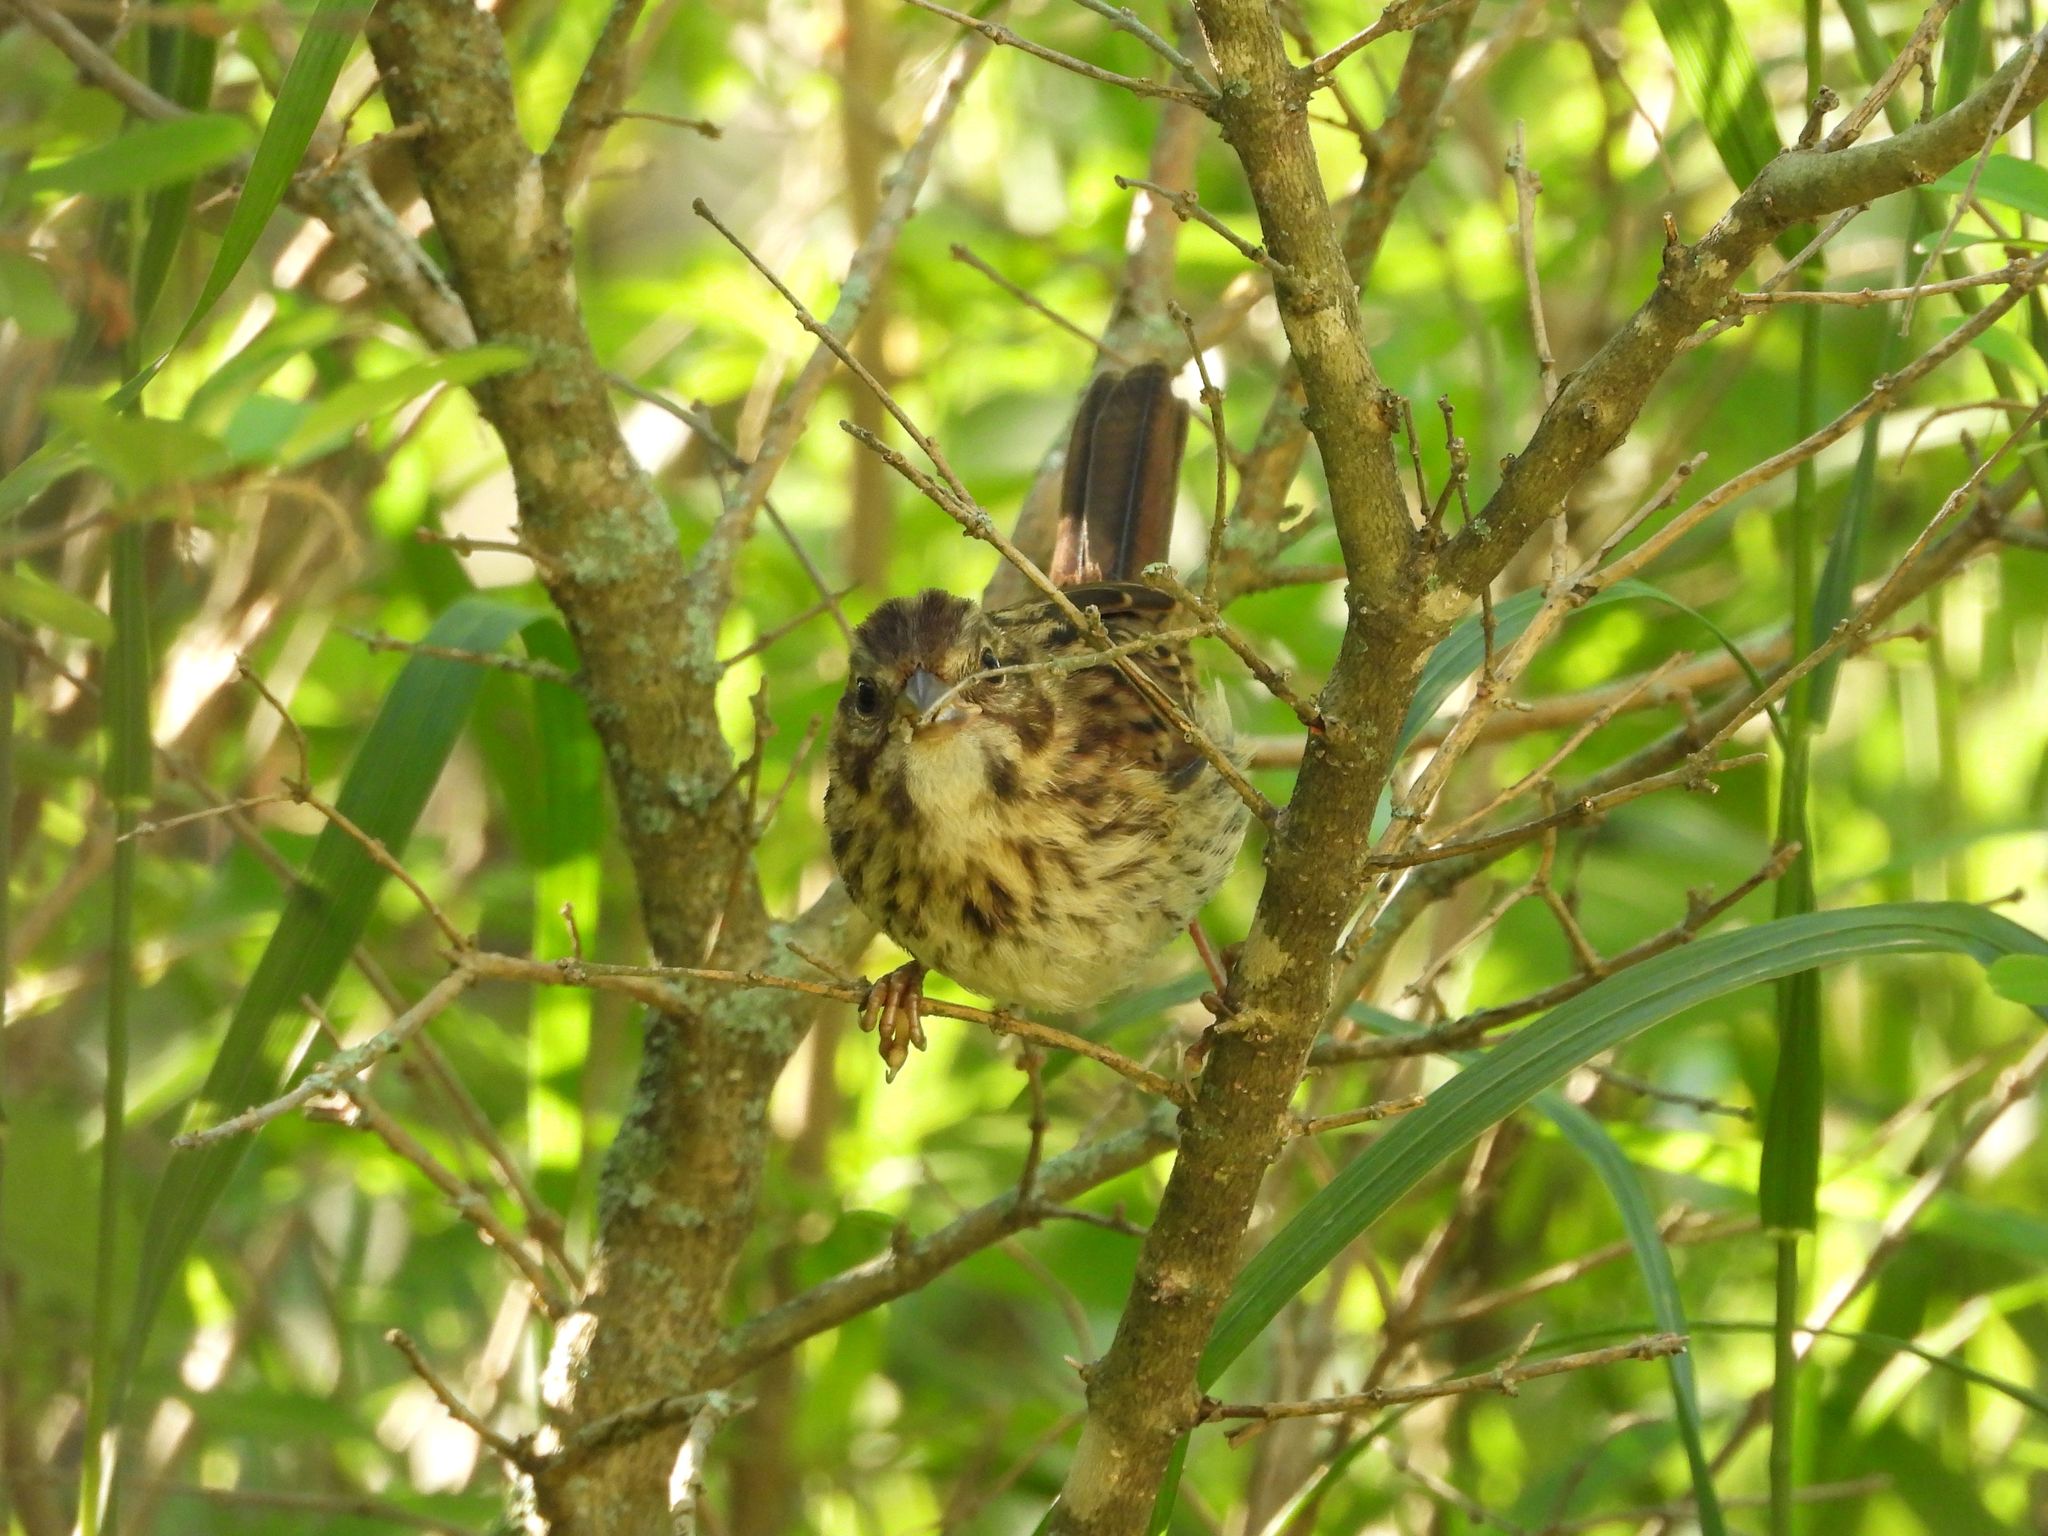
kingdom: Animalia
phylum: Chordata
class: Aves
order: Passeriformes
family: Passerellidae
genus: Melospiza
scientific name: Melospiza melodia
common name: Song sparrow
